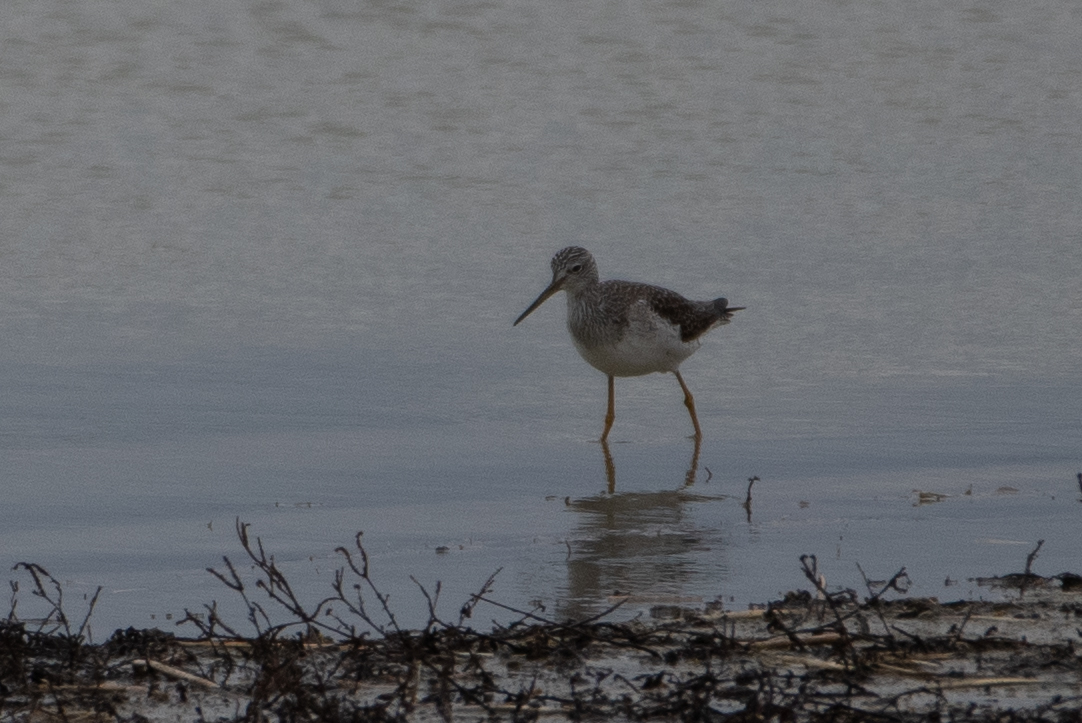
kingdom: Animalia
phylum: Chordata
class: Aves
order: Charadriiformes
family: Scolopacidae
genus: Tringa
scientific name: Tringa melanoleuca
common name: Greater yellowlegs
